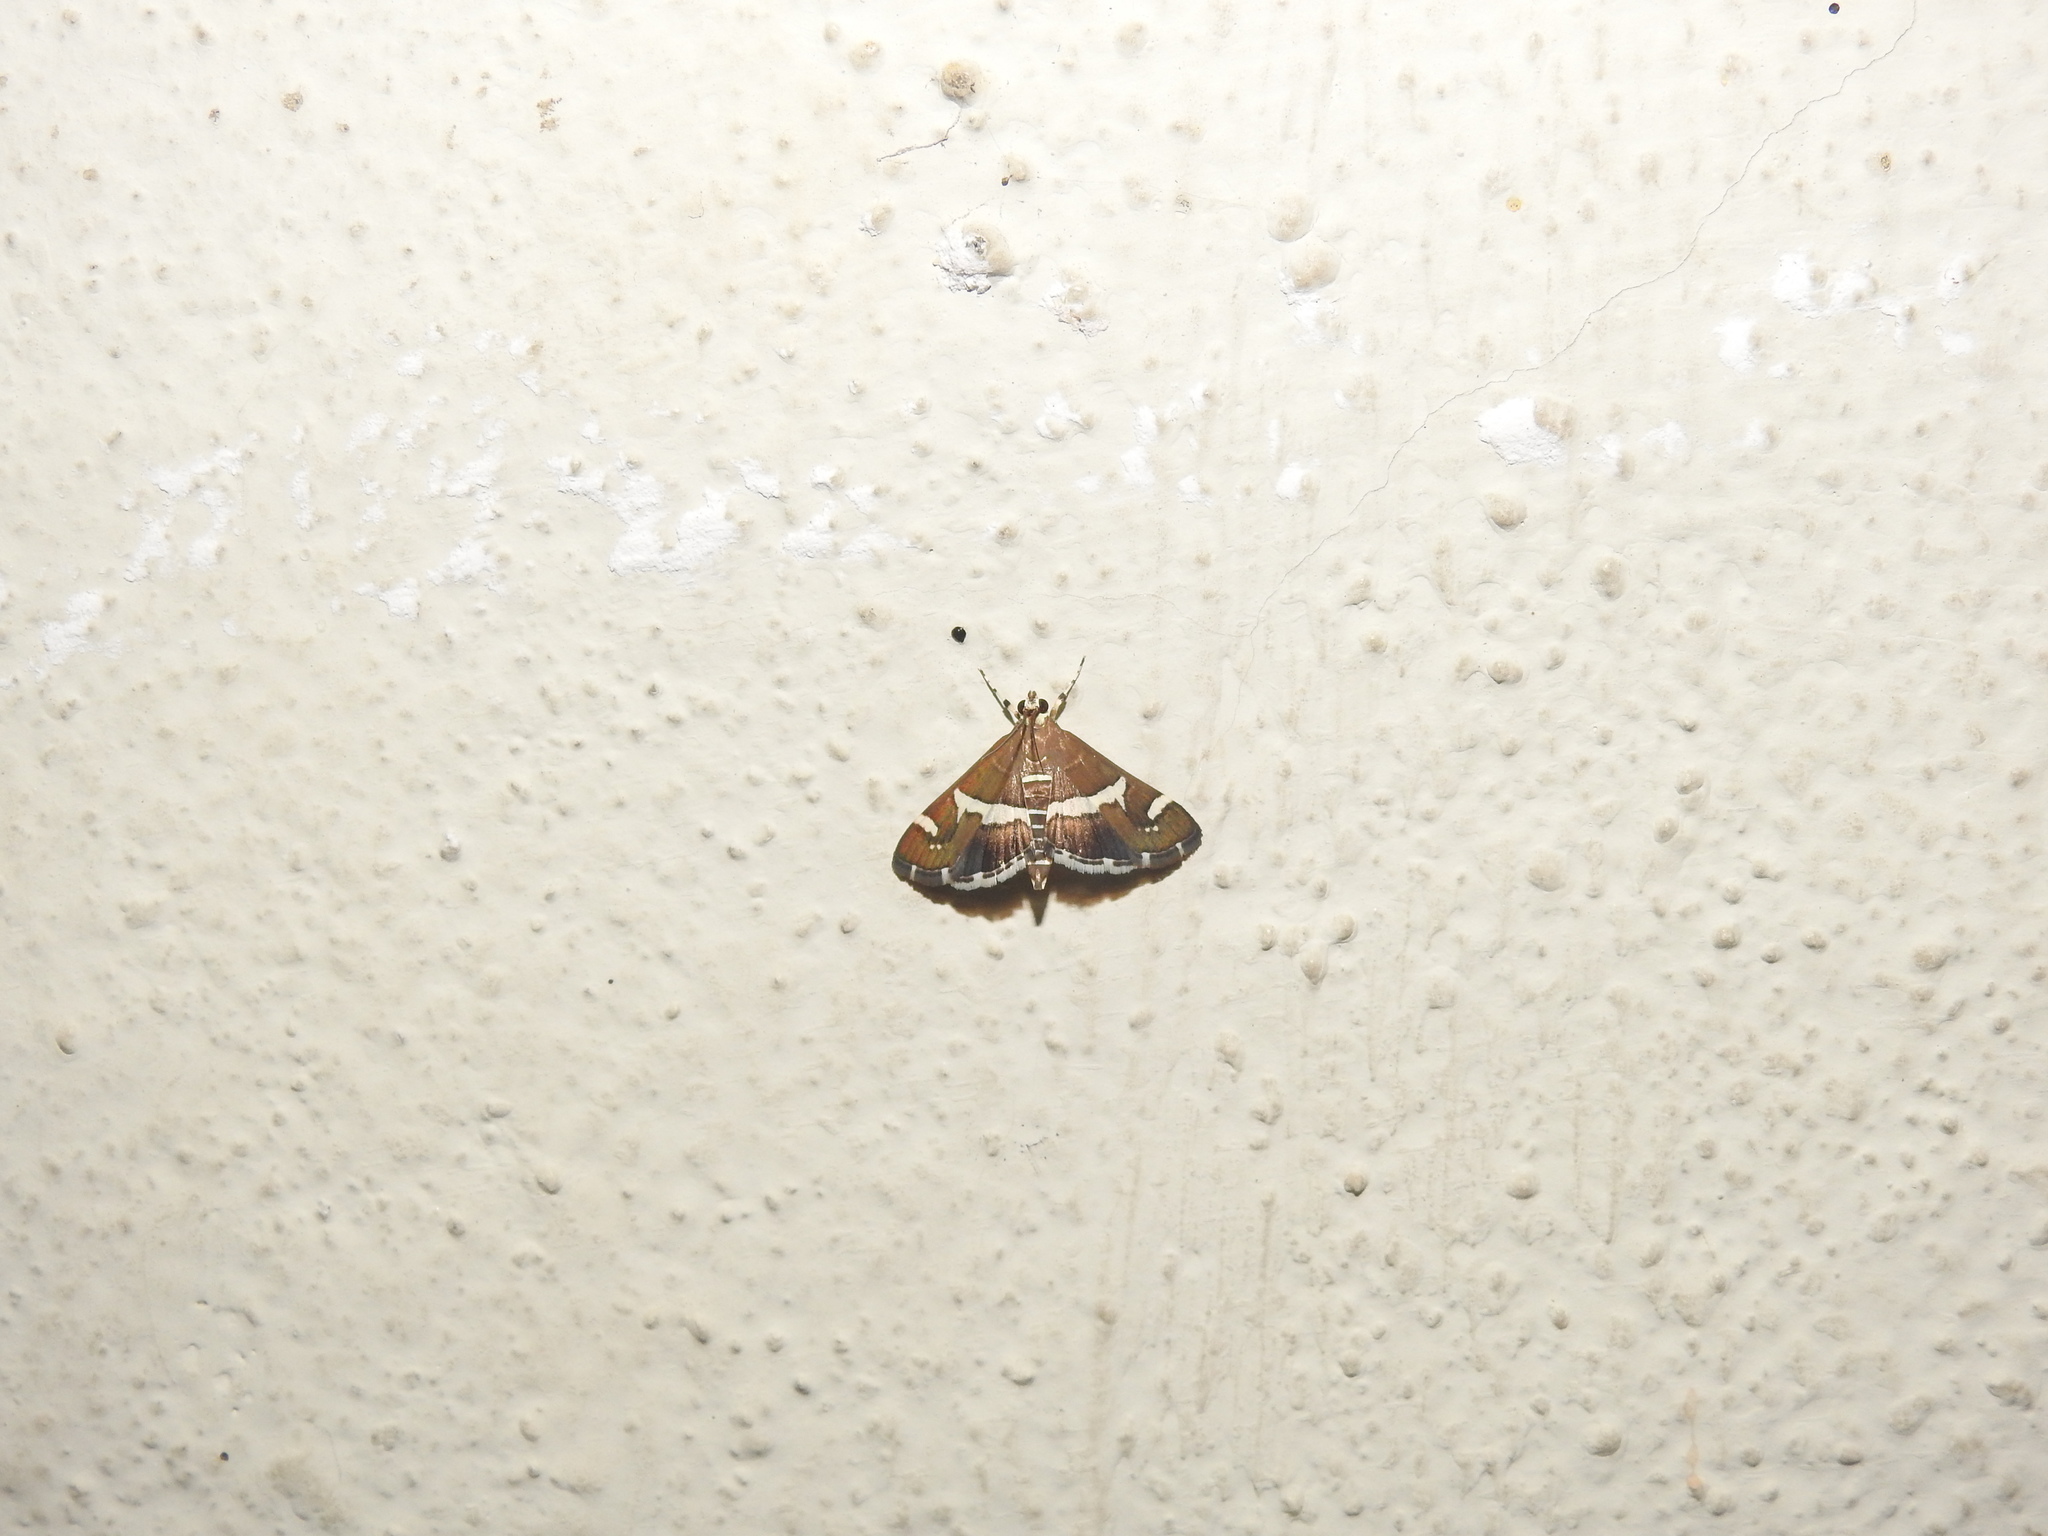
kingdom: Animalia
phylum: Arthropoda
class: Insecta
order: Lepidoptera
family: Crambidae
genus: Spoladea
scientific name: Spoladea recurvalis
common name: Beet webworm moth
